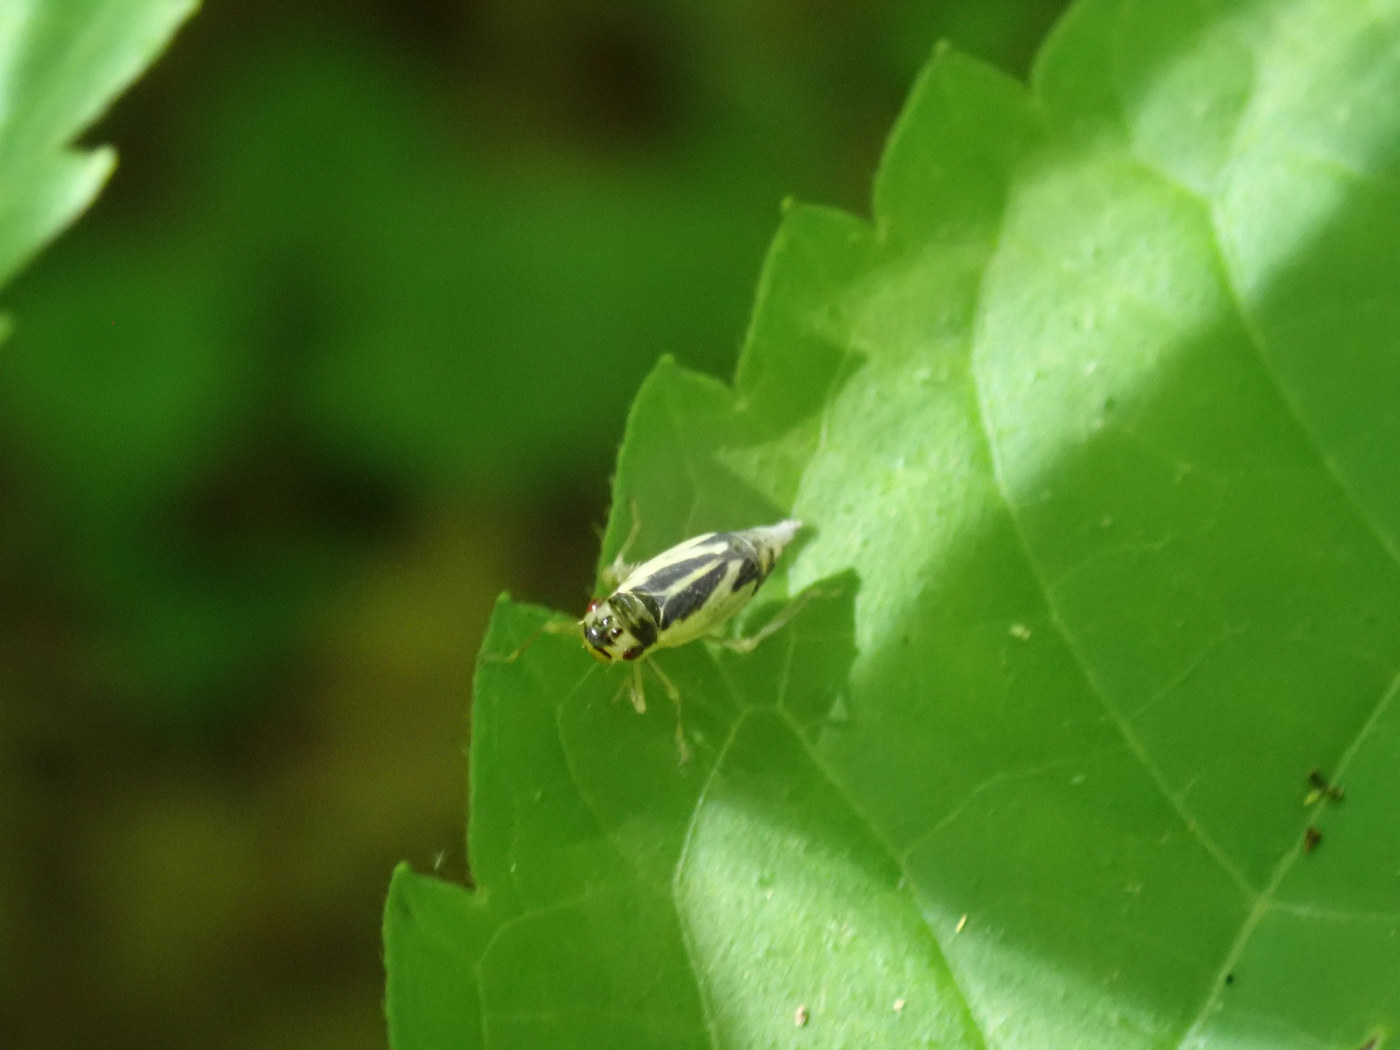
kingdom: Animalia
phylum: Arthropoda
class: Insecta
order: Hemiptera
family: Cicadellidae
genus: Evacanthus
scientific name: Evacanthus bellaustralis
